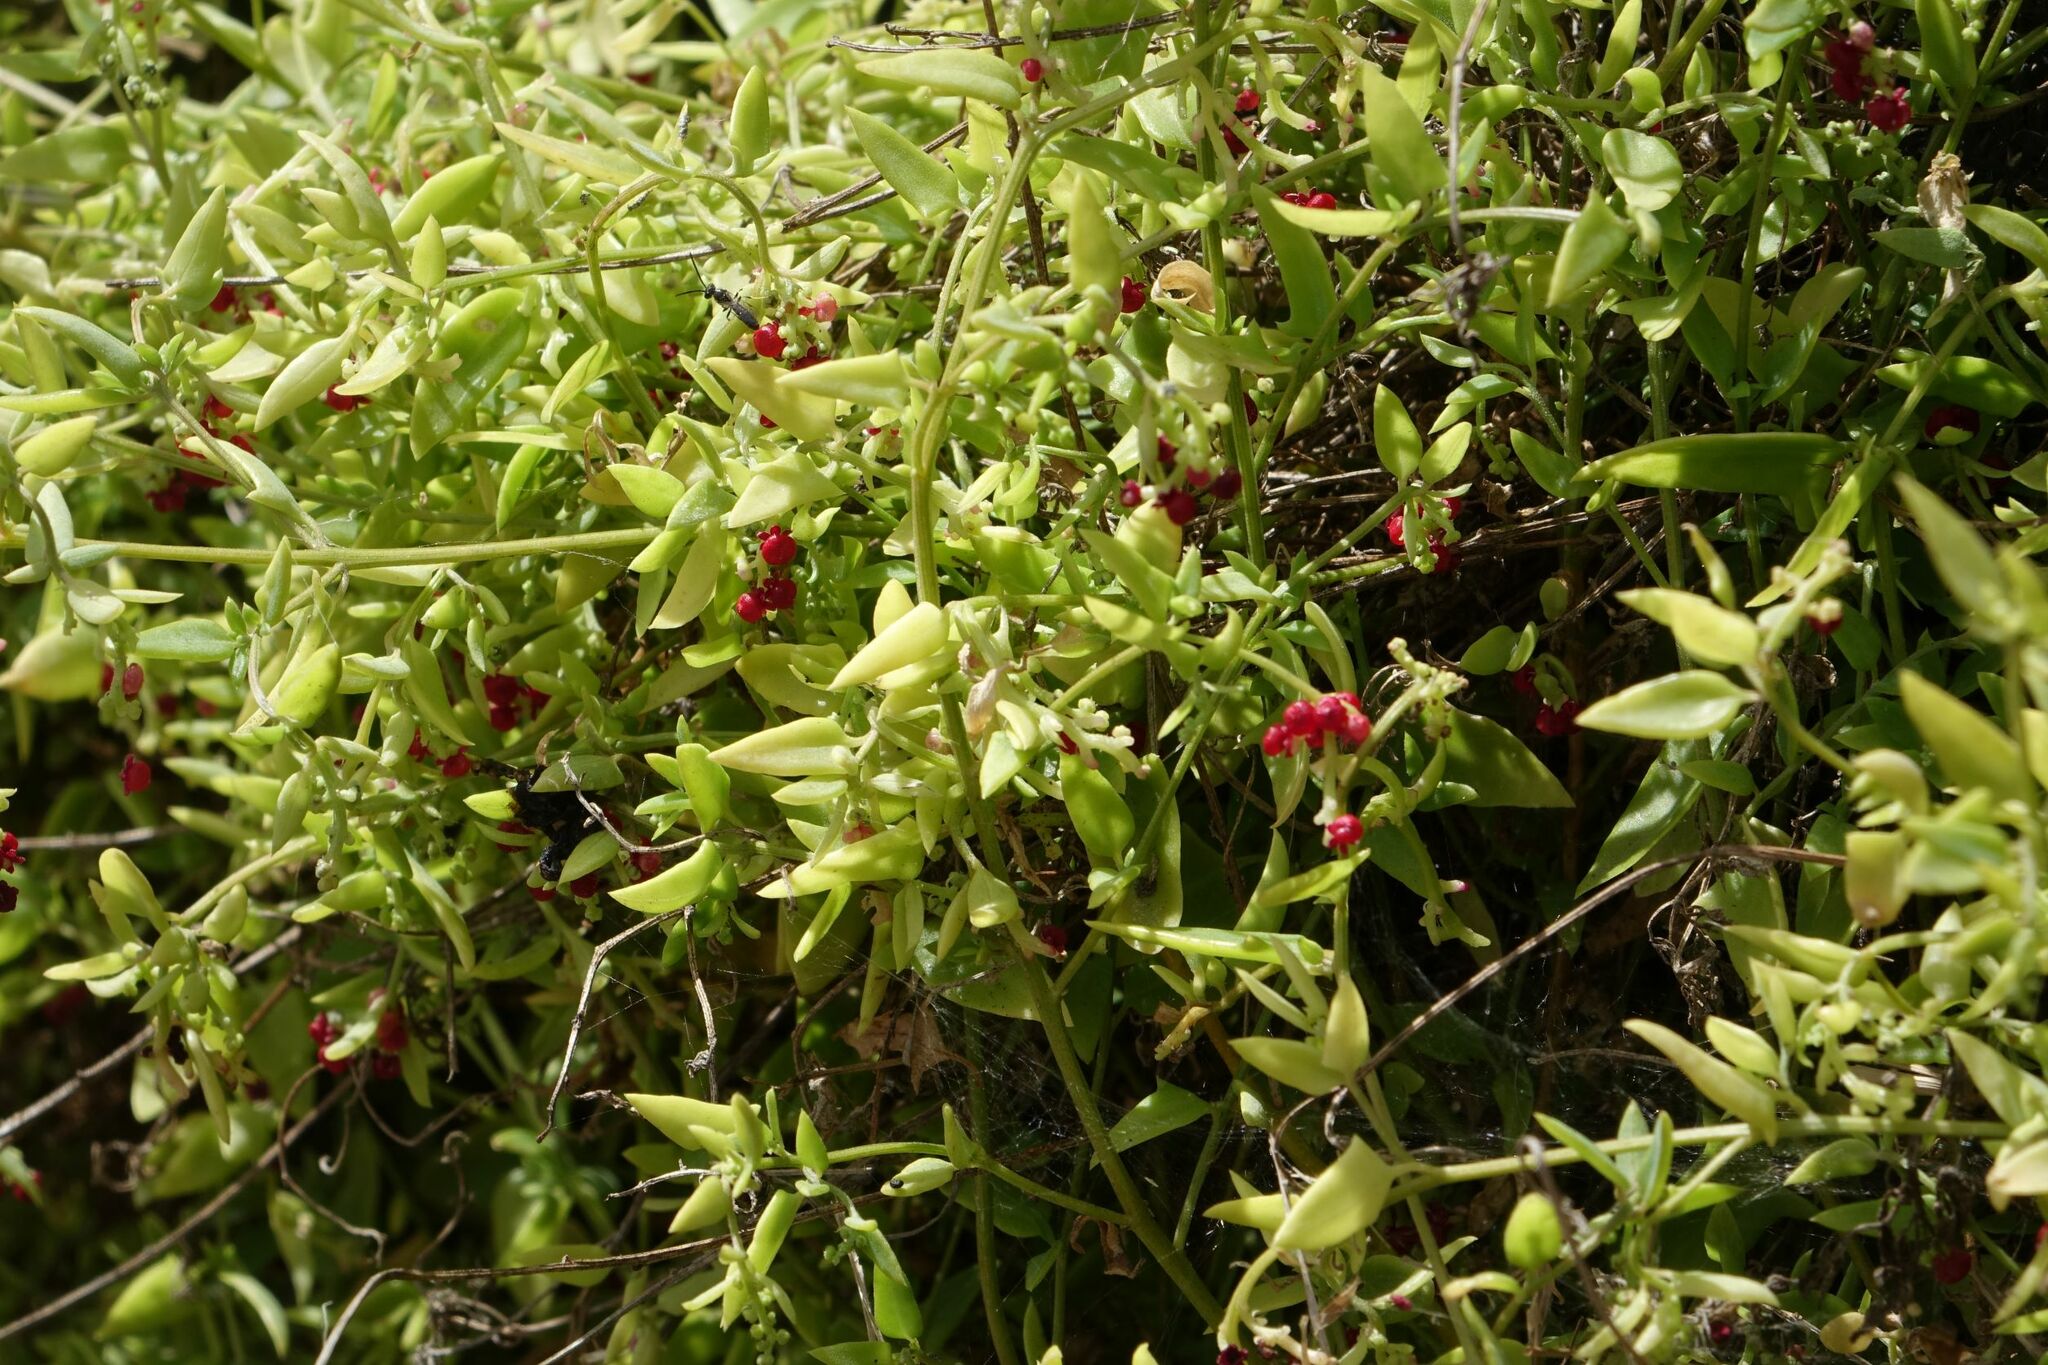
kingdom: Plantae
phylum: Tracheophyta
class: Magnoliopsida
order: Caryophyllales
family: Amaranthaceae
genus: Chenopodium
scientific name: Chenopodium nutans
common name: Climbing-saltbush
